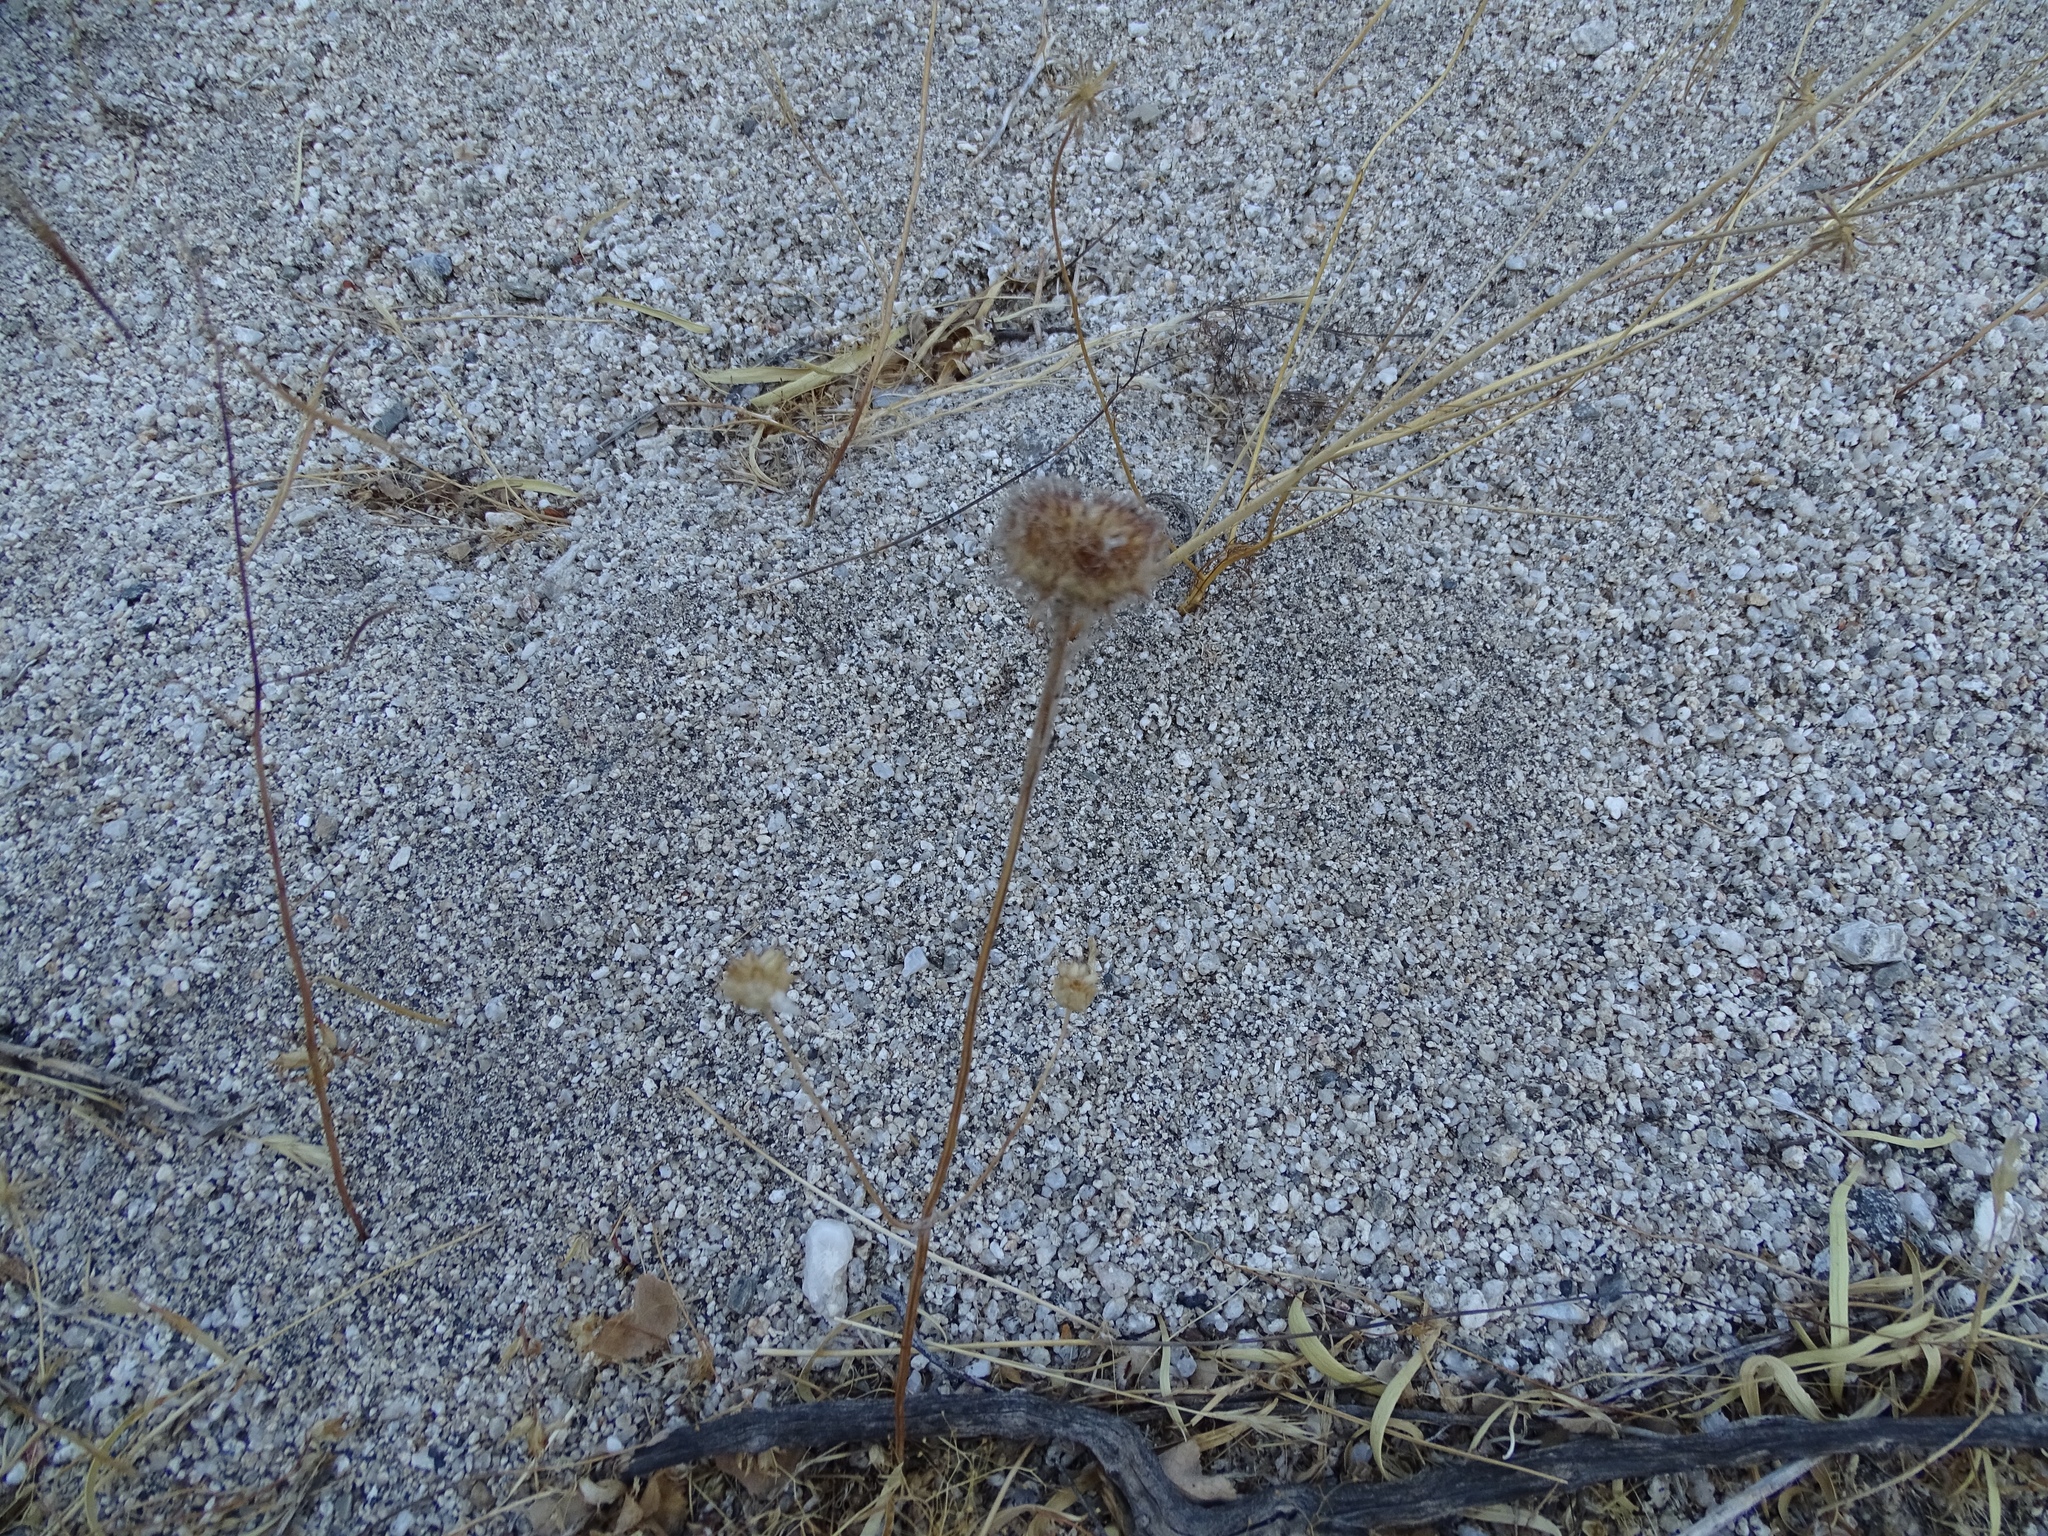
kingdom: Plantae
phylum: Tracheophyta
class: Magnoliopsida
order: Lamiales
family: Lamiaceae
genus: Salvia
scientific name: Salvia columbariae
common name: Chia
